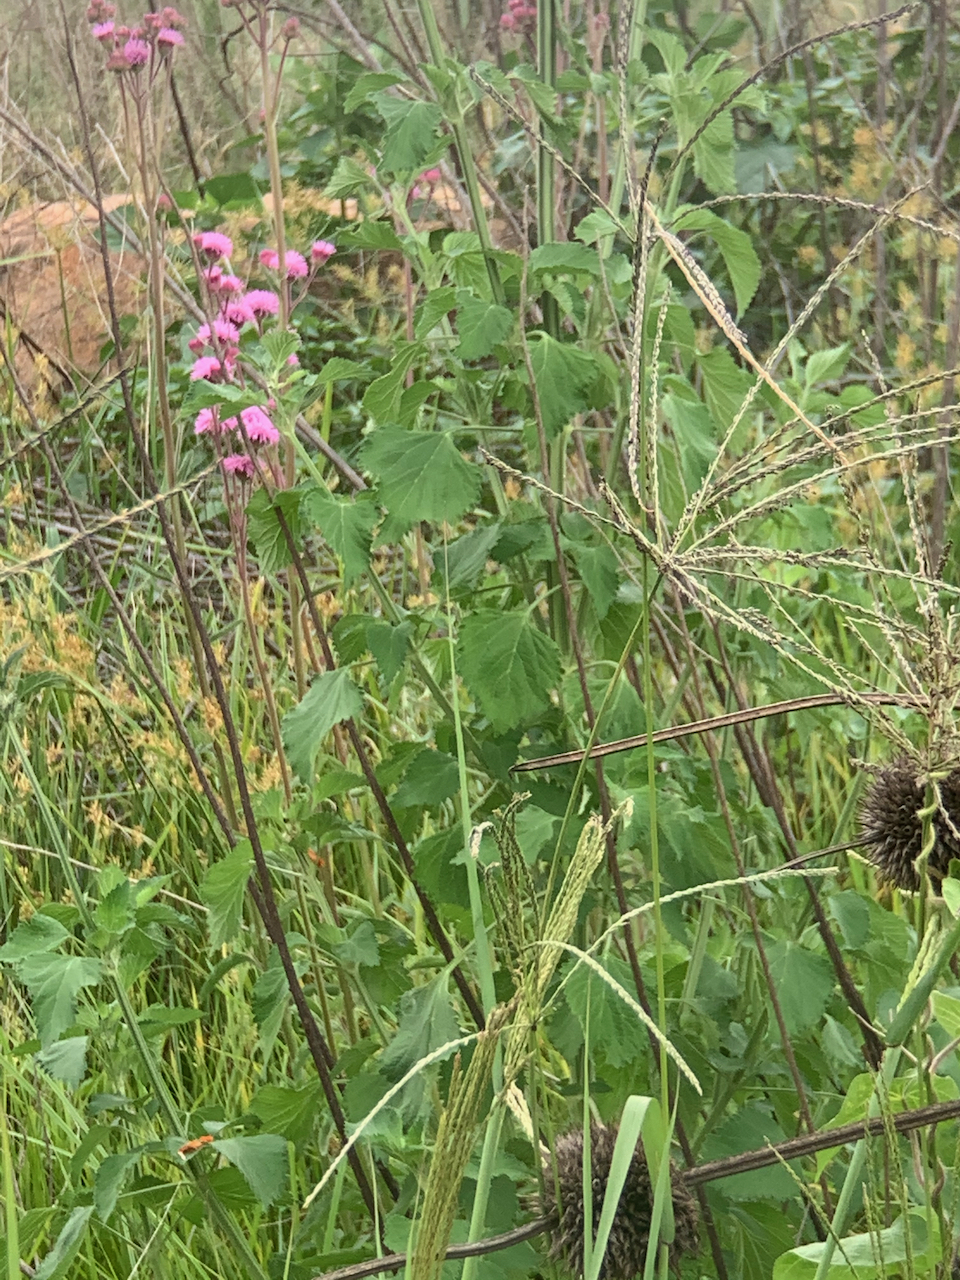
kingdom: Plantae
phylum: Tracheophyta
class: Magnoliopsida
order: Lamiales
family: Lamiaceae
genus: Leonotis
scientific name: Leonotis nepetifolia
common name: Christmas candlestick
